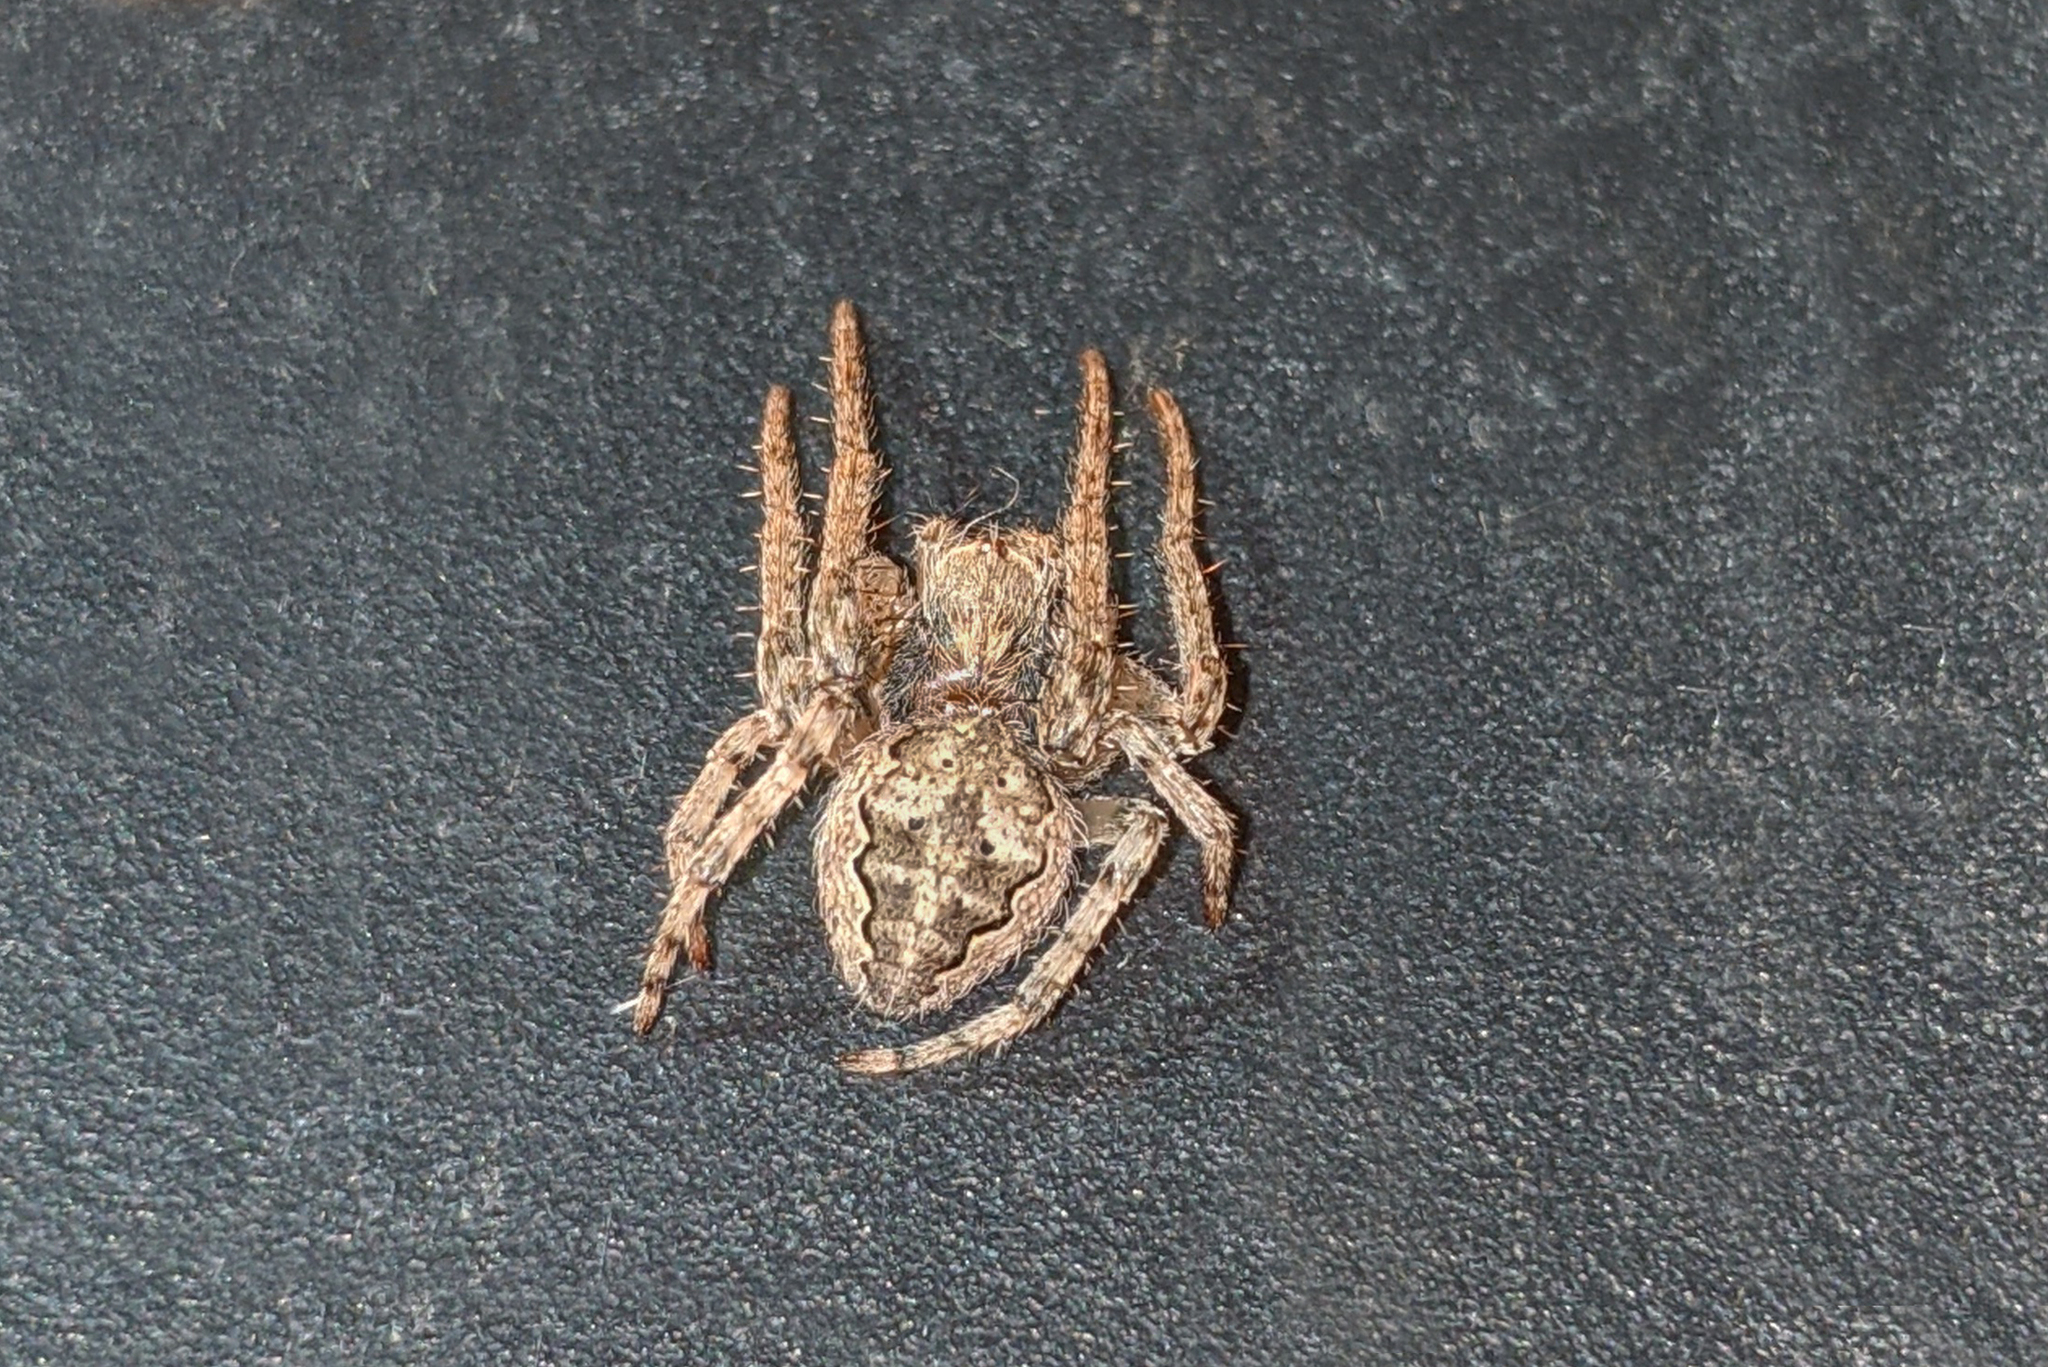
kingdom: Animalia
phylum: Arthropoda
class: Arachnida
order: Araneae
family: Araneidae
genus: Larinioides
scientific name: Larinioides ixobolus
